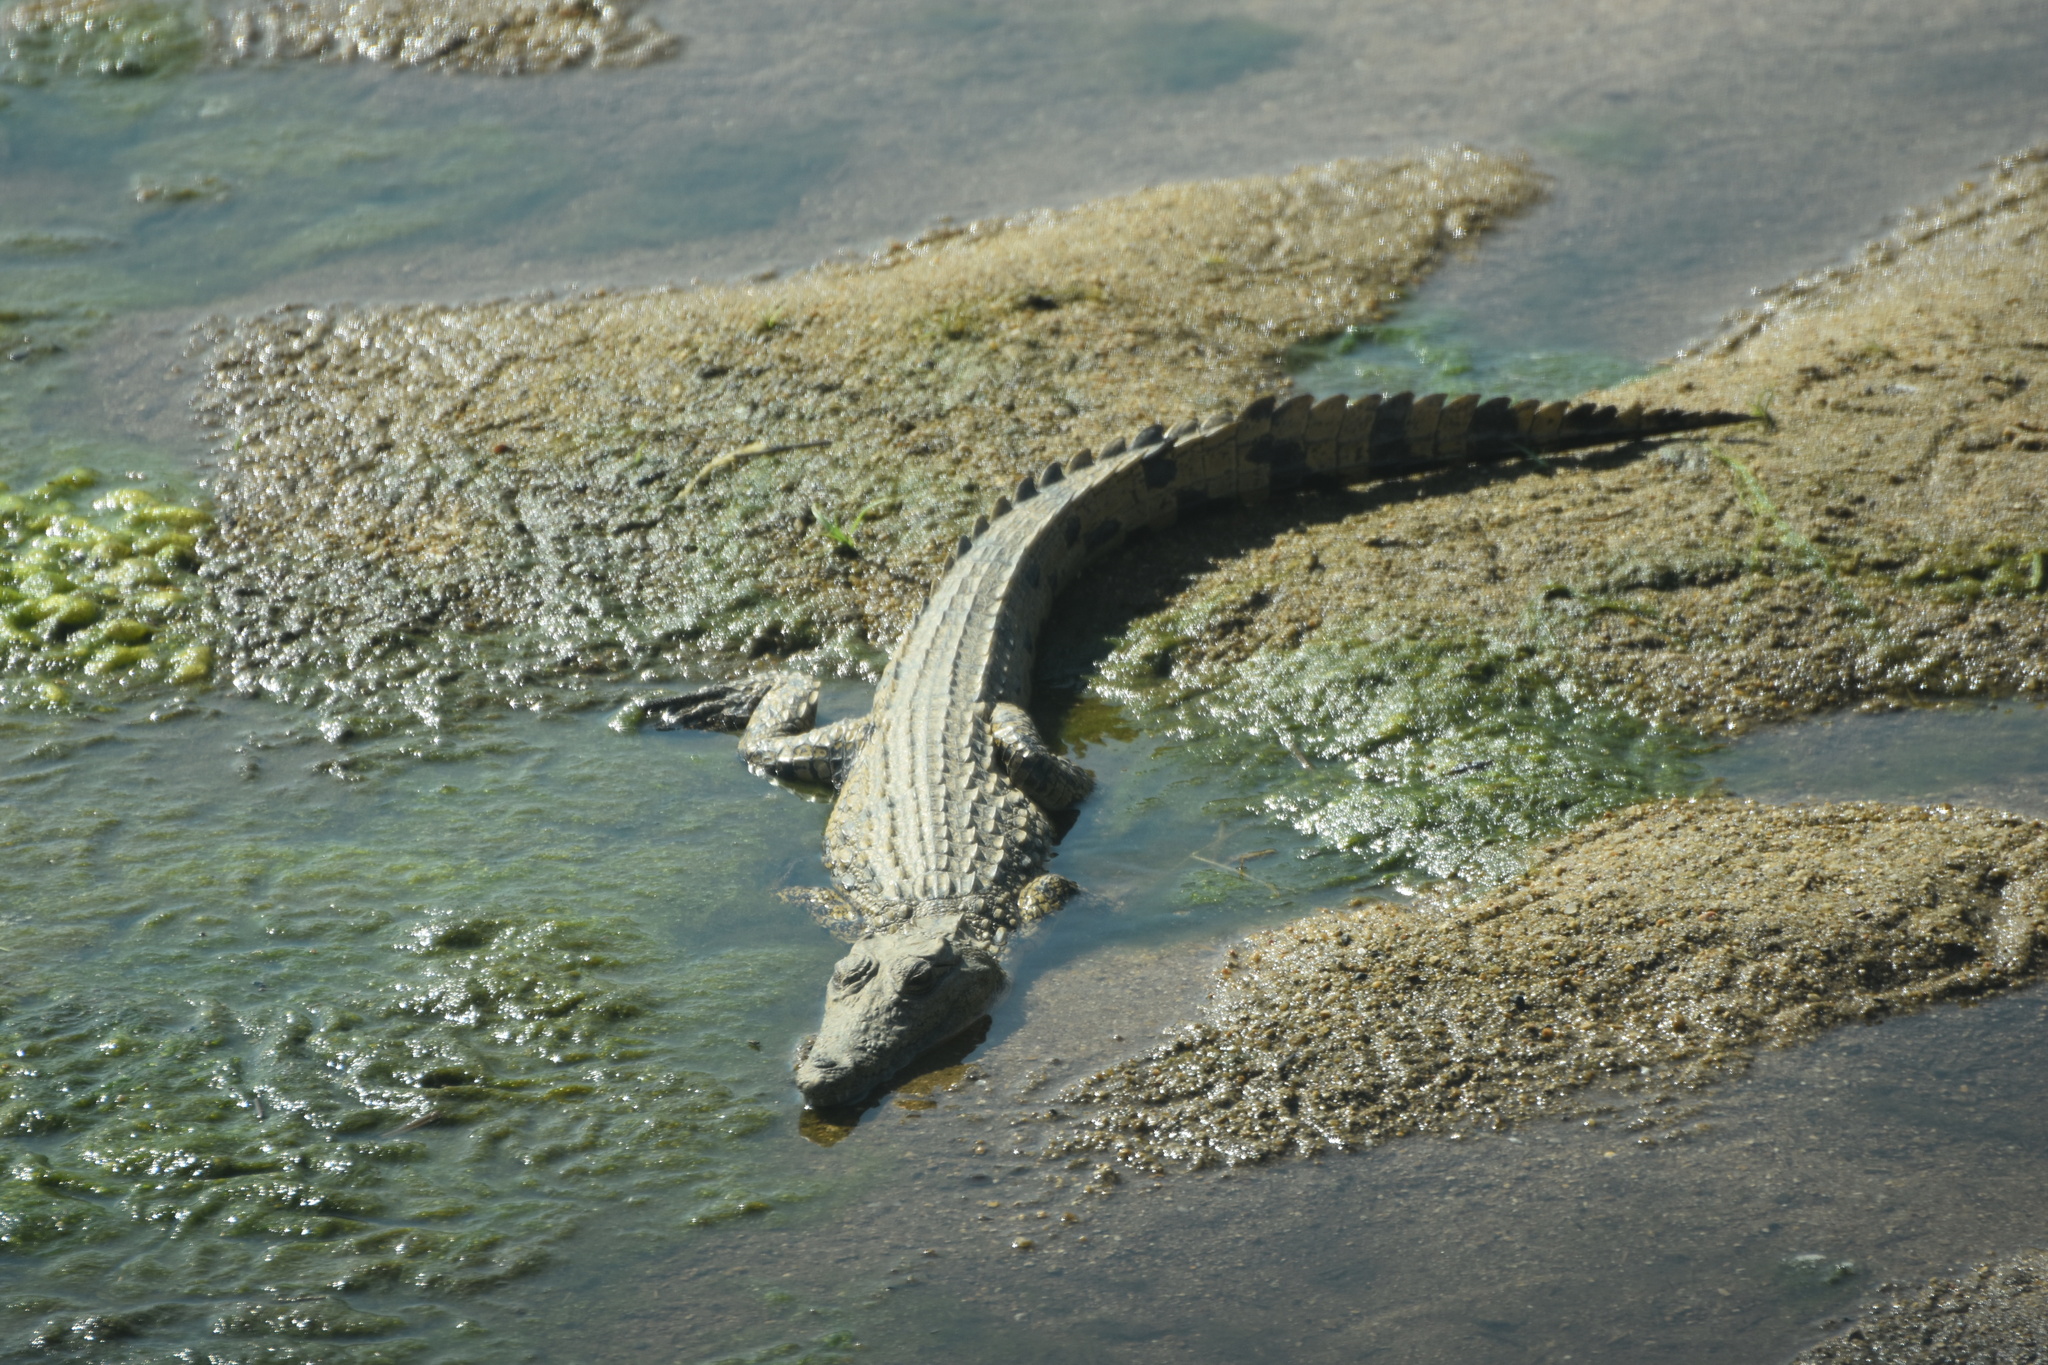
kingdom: Animalia
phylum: Chordata
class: Crocodylia
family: Crocodylidae
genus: Crocodylus
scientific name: Crocodylus niloticus
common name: Nile crocodile
